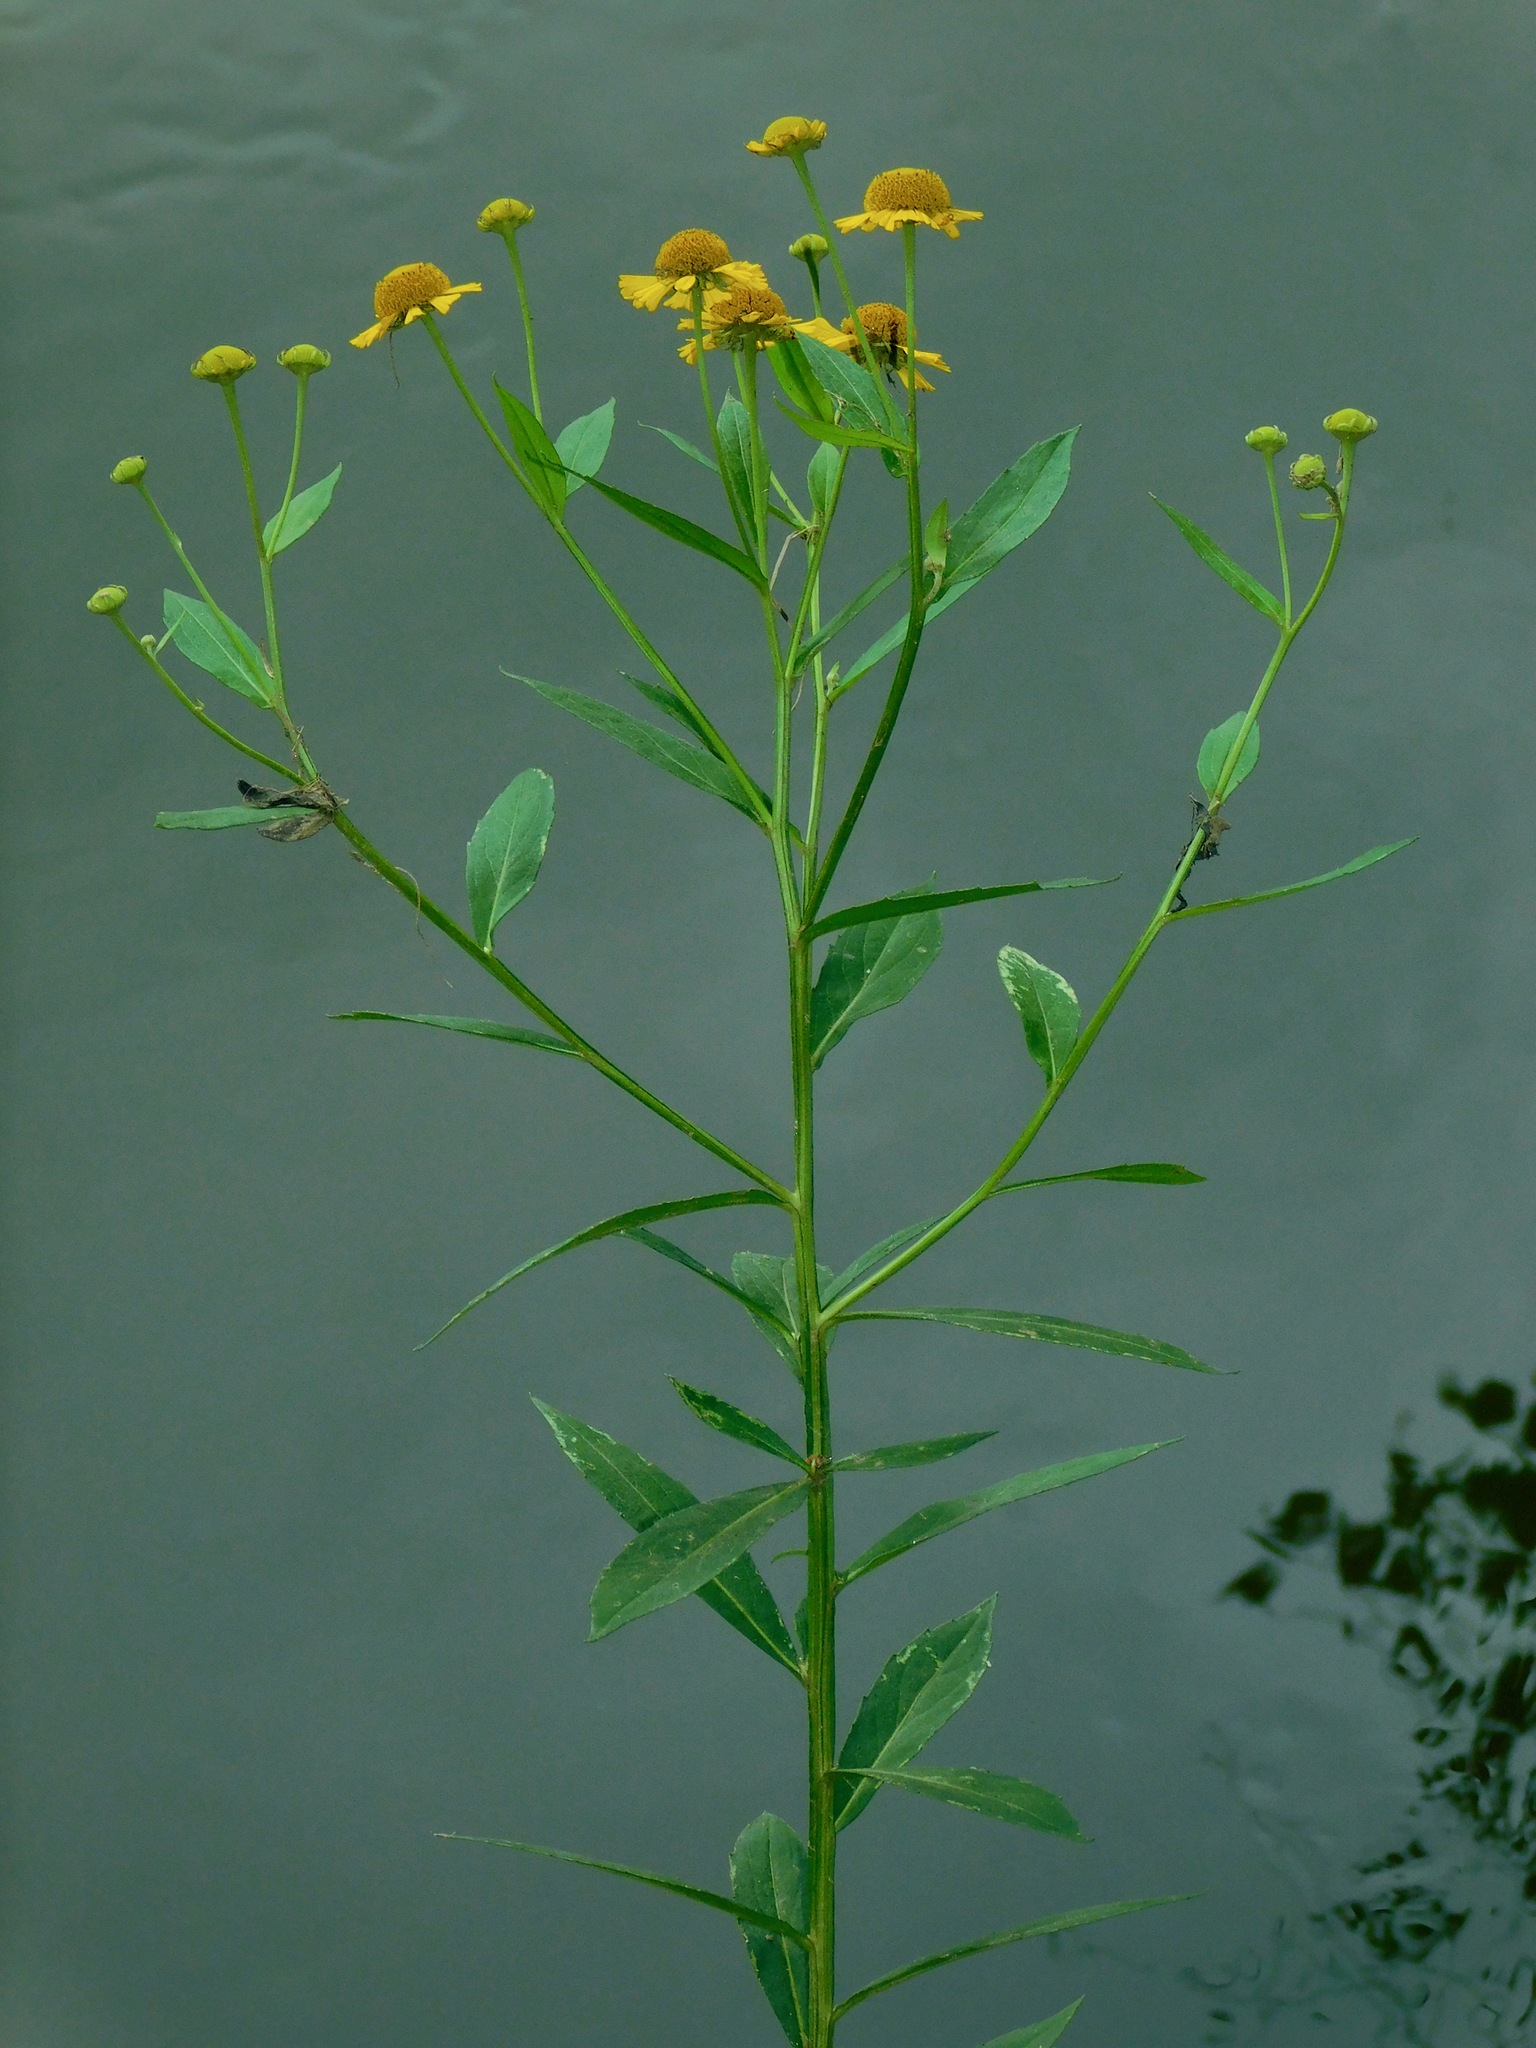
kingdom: Plantae
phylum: Tracheophyta
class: Magnoliopsida
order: Asterales
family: Asteraceae
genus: Helenium
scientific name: Helenium autumnale
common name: Sneezeweed
